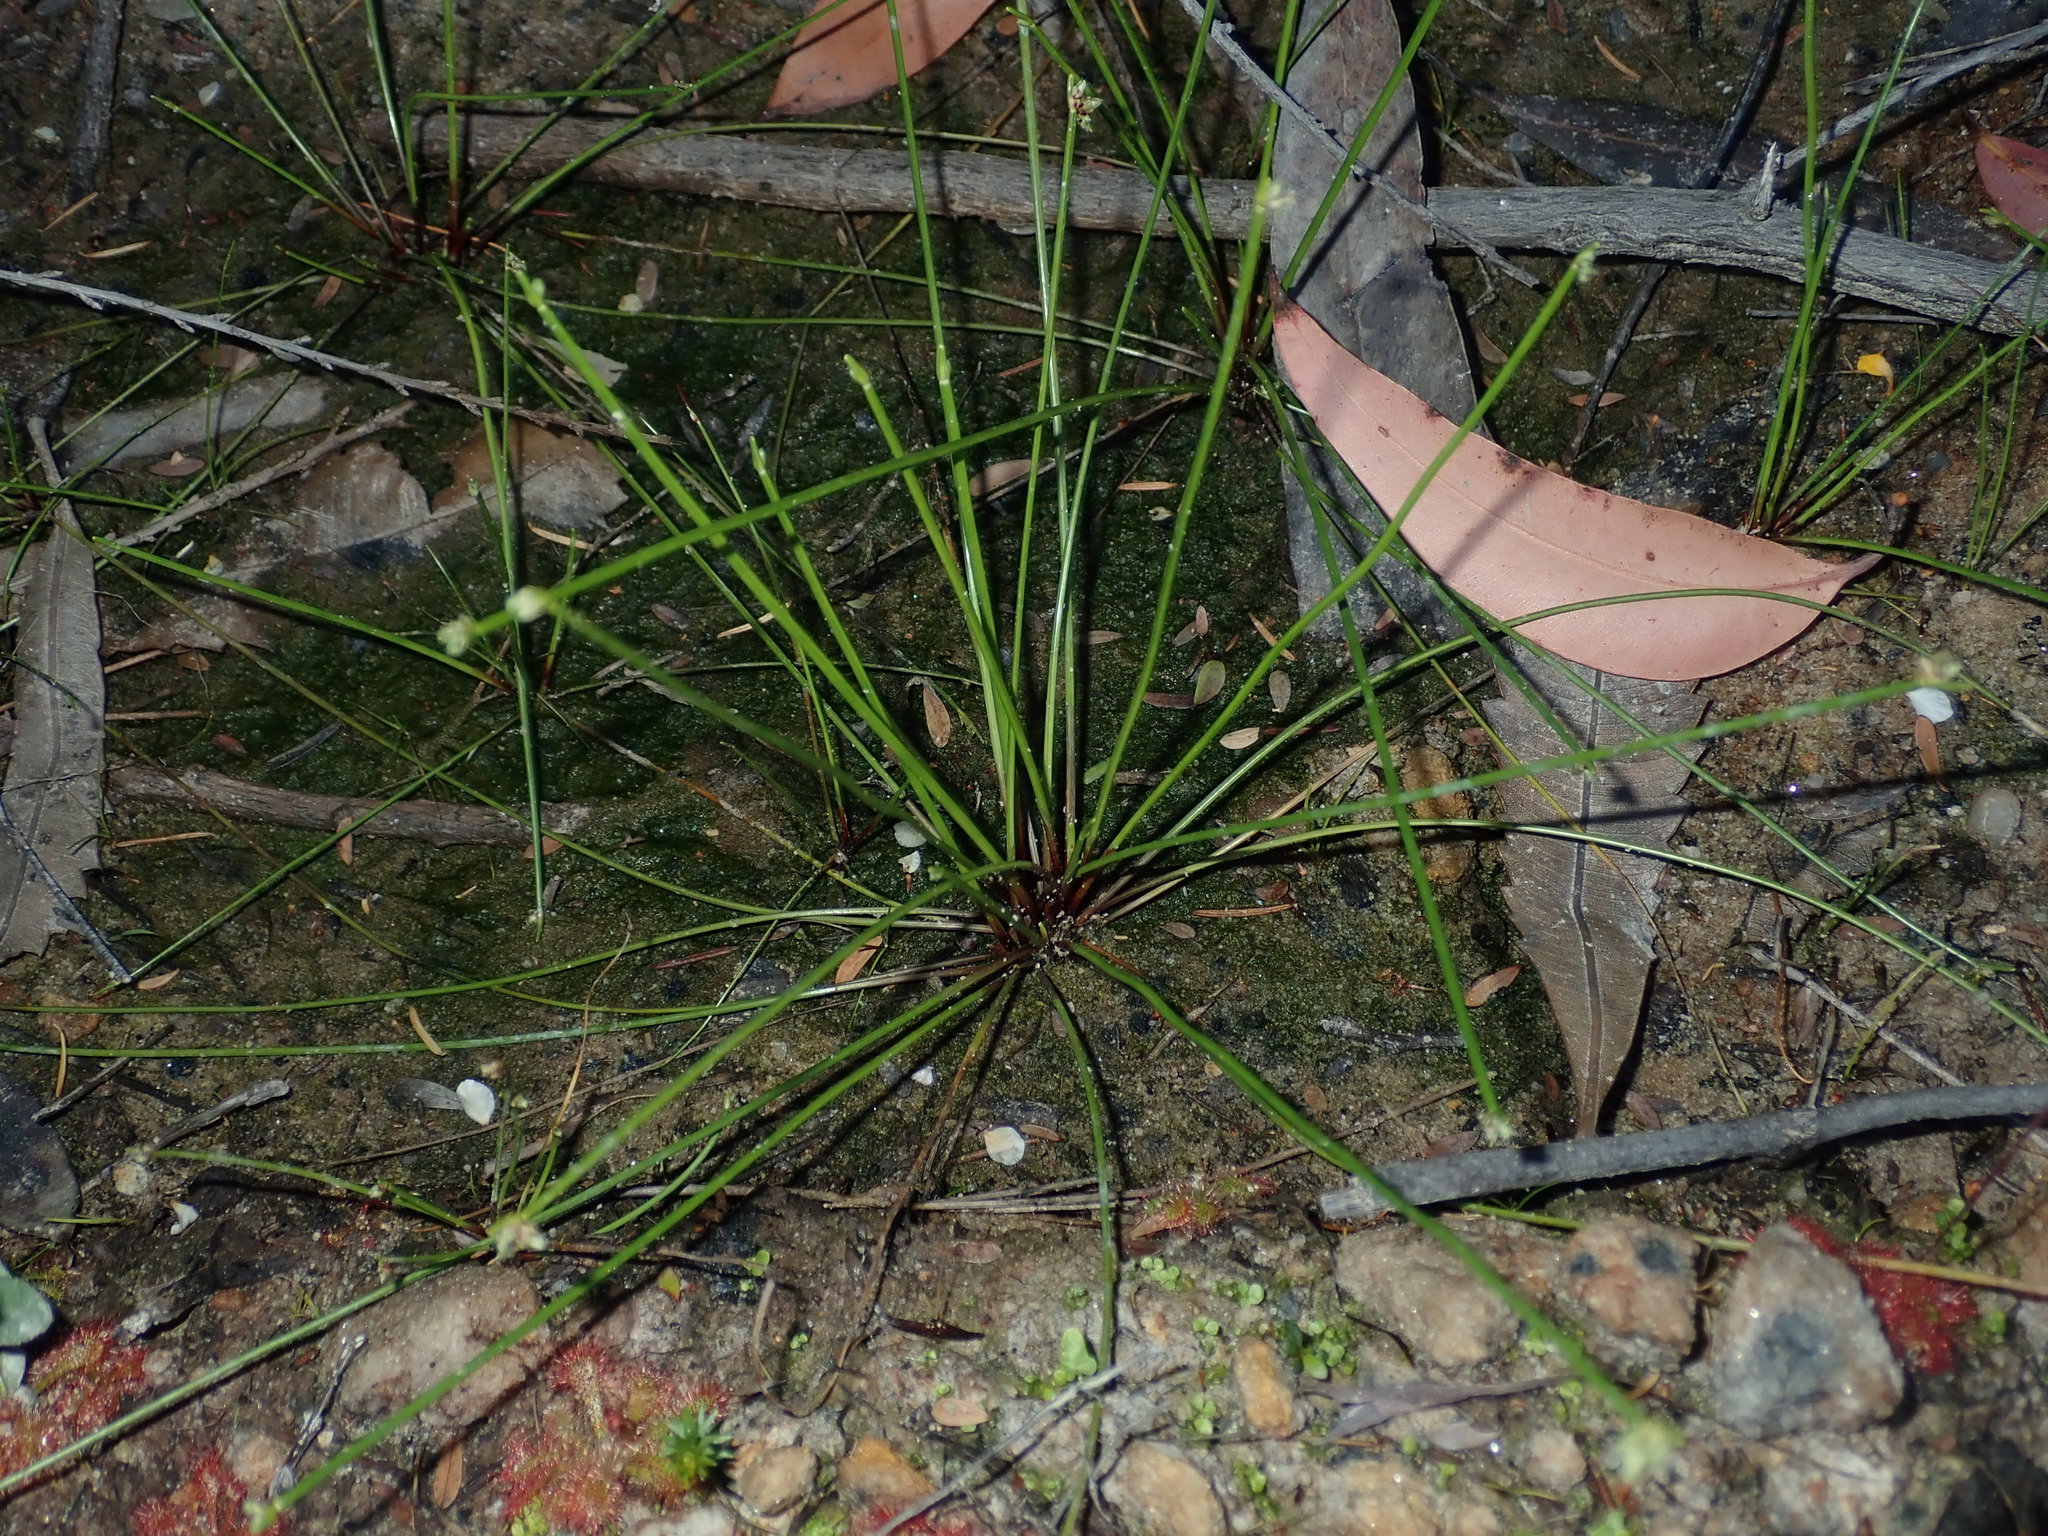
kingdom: Plantae
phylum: Tracheophyta
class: Liliopsida
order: Poales
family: Cyperaceae
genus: Isolepis
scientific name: Isolepis inundata
